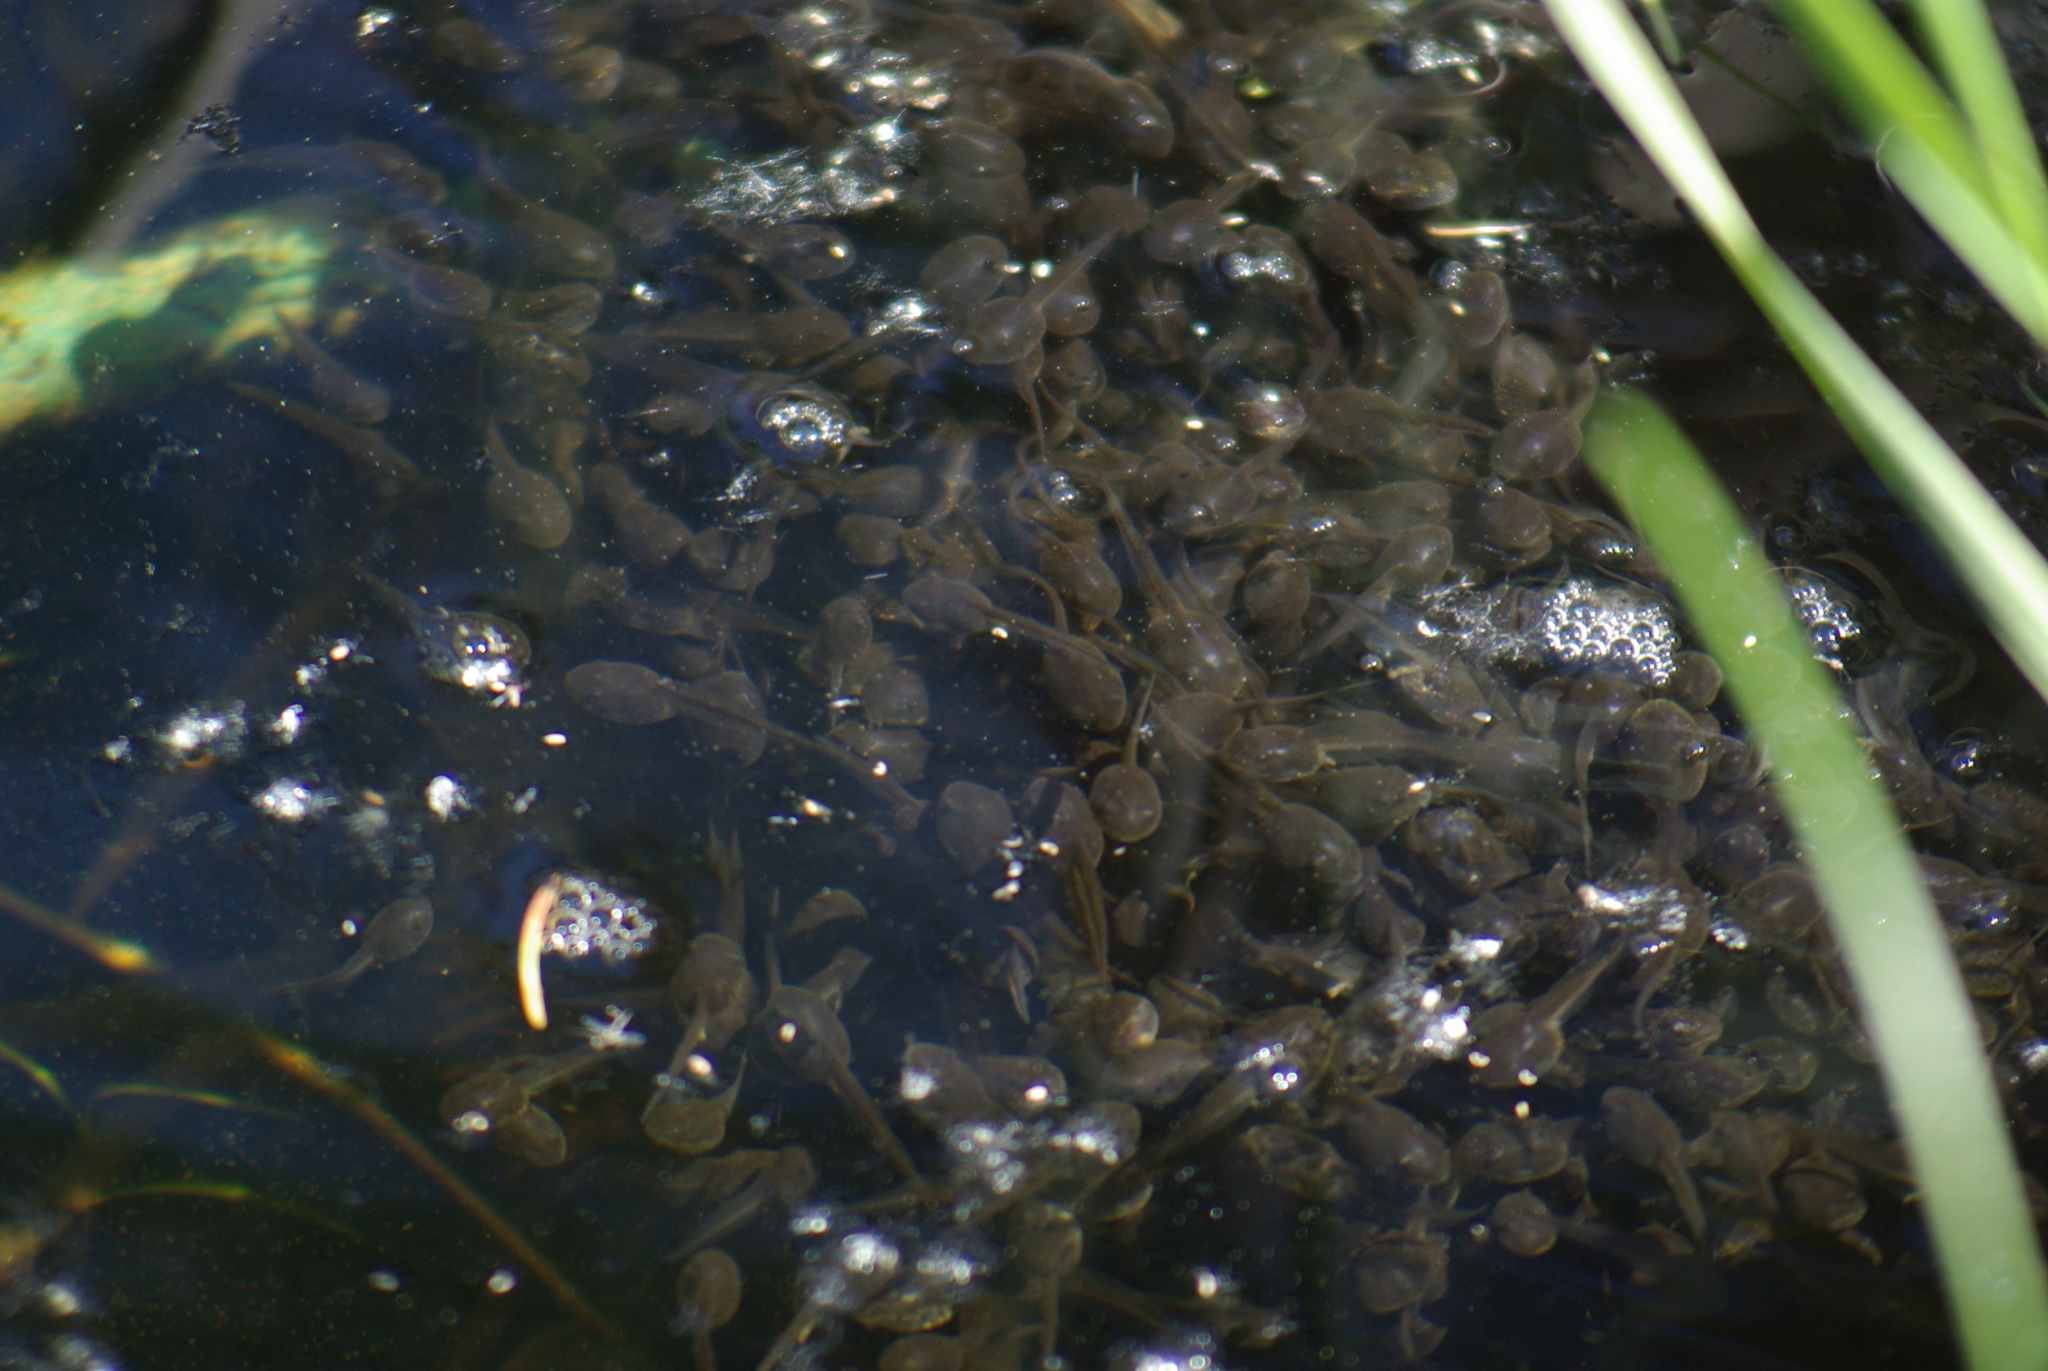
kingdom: Animalia
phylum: Chordata
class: Amphibia
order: Anura
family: Ranidae
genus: Lithobates
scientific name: Lithobates sylvaticus
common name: Wood frog
